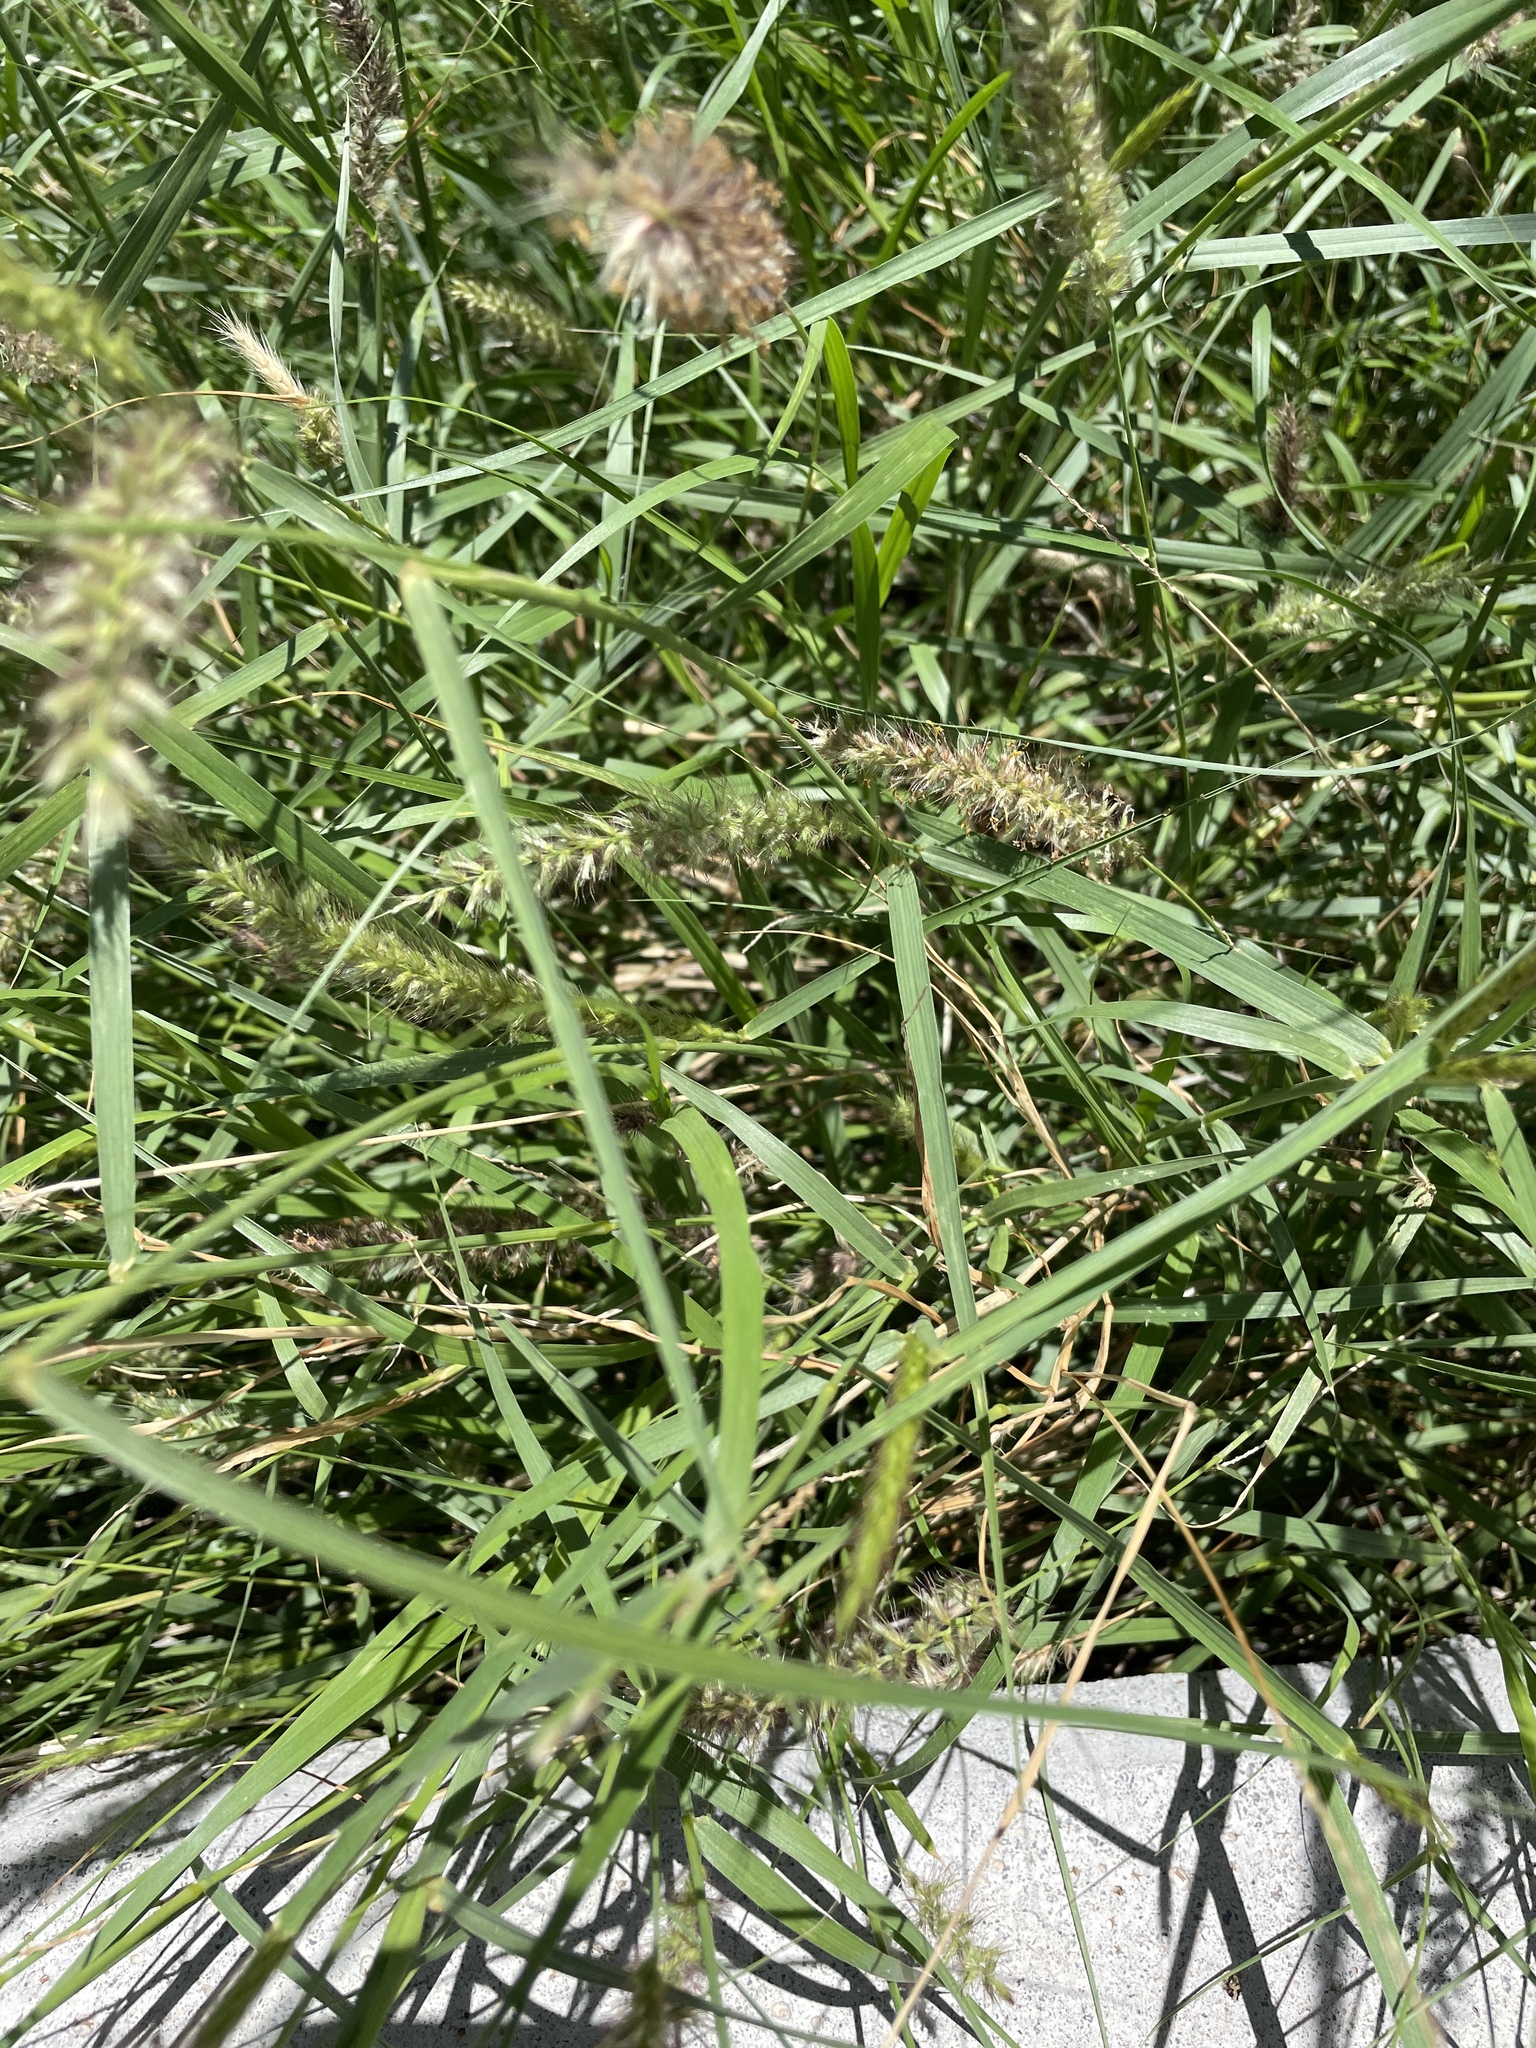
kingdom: Plantae
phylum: Tracheophyta
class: Liliopsida
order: Poales
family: Poaceae
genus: Cenchrus
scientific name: Cenchrus ciliaris
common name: Buffelgrass
